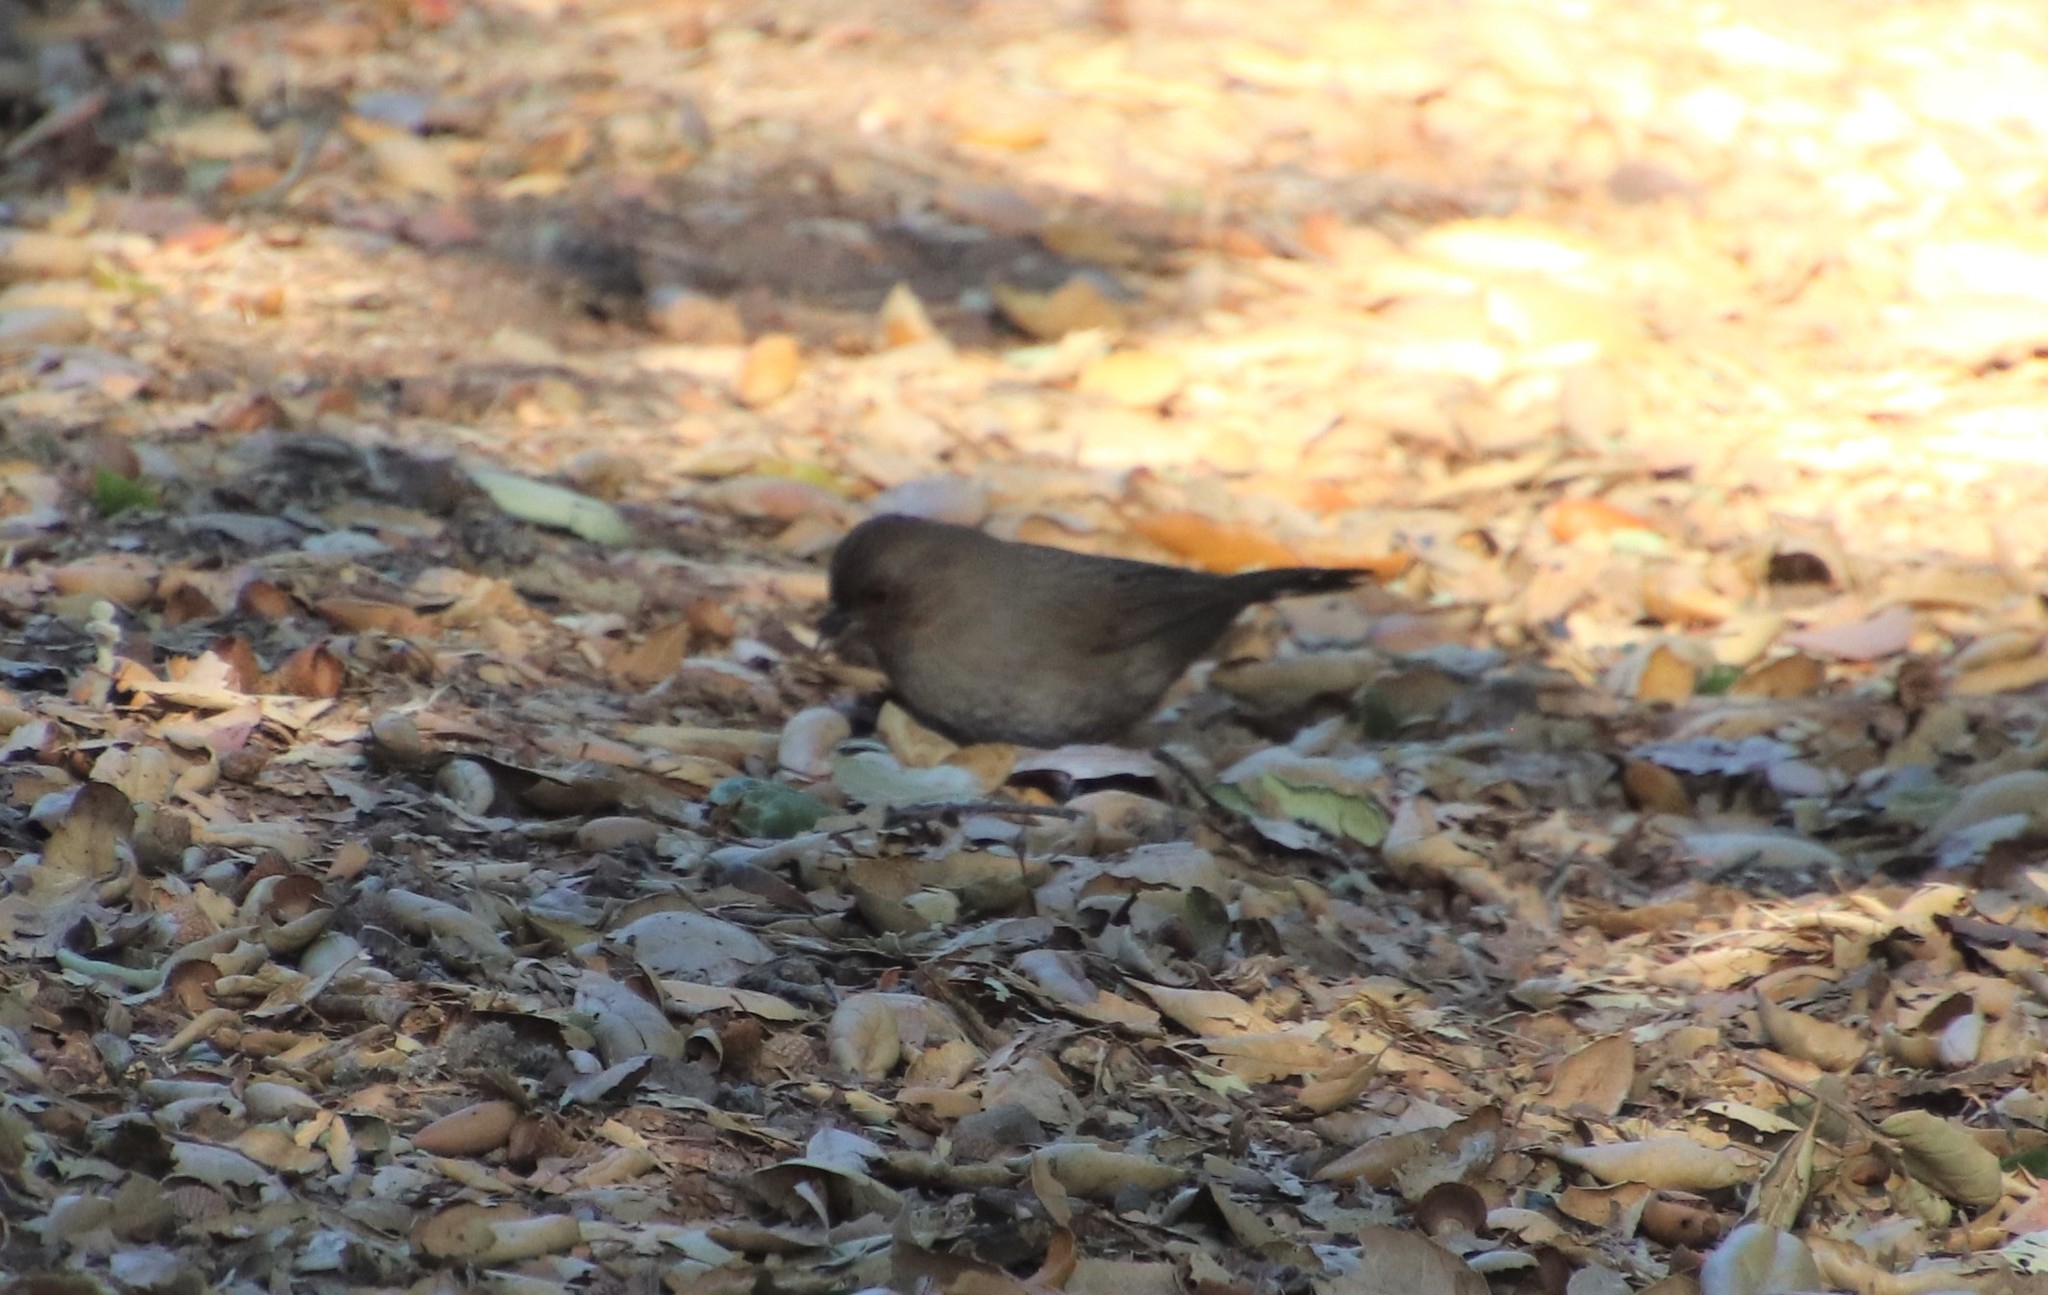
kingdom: Animalia
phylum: Chordata
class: Aves
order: Passeriformes
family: Passerellidae
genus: Melozone
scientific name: Melozone crissalis
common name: California towhee
